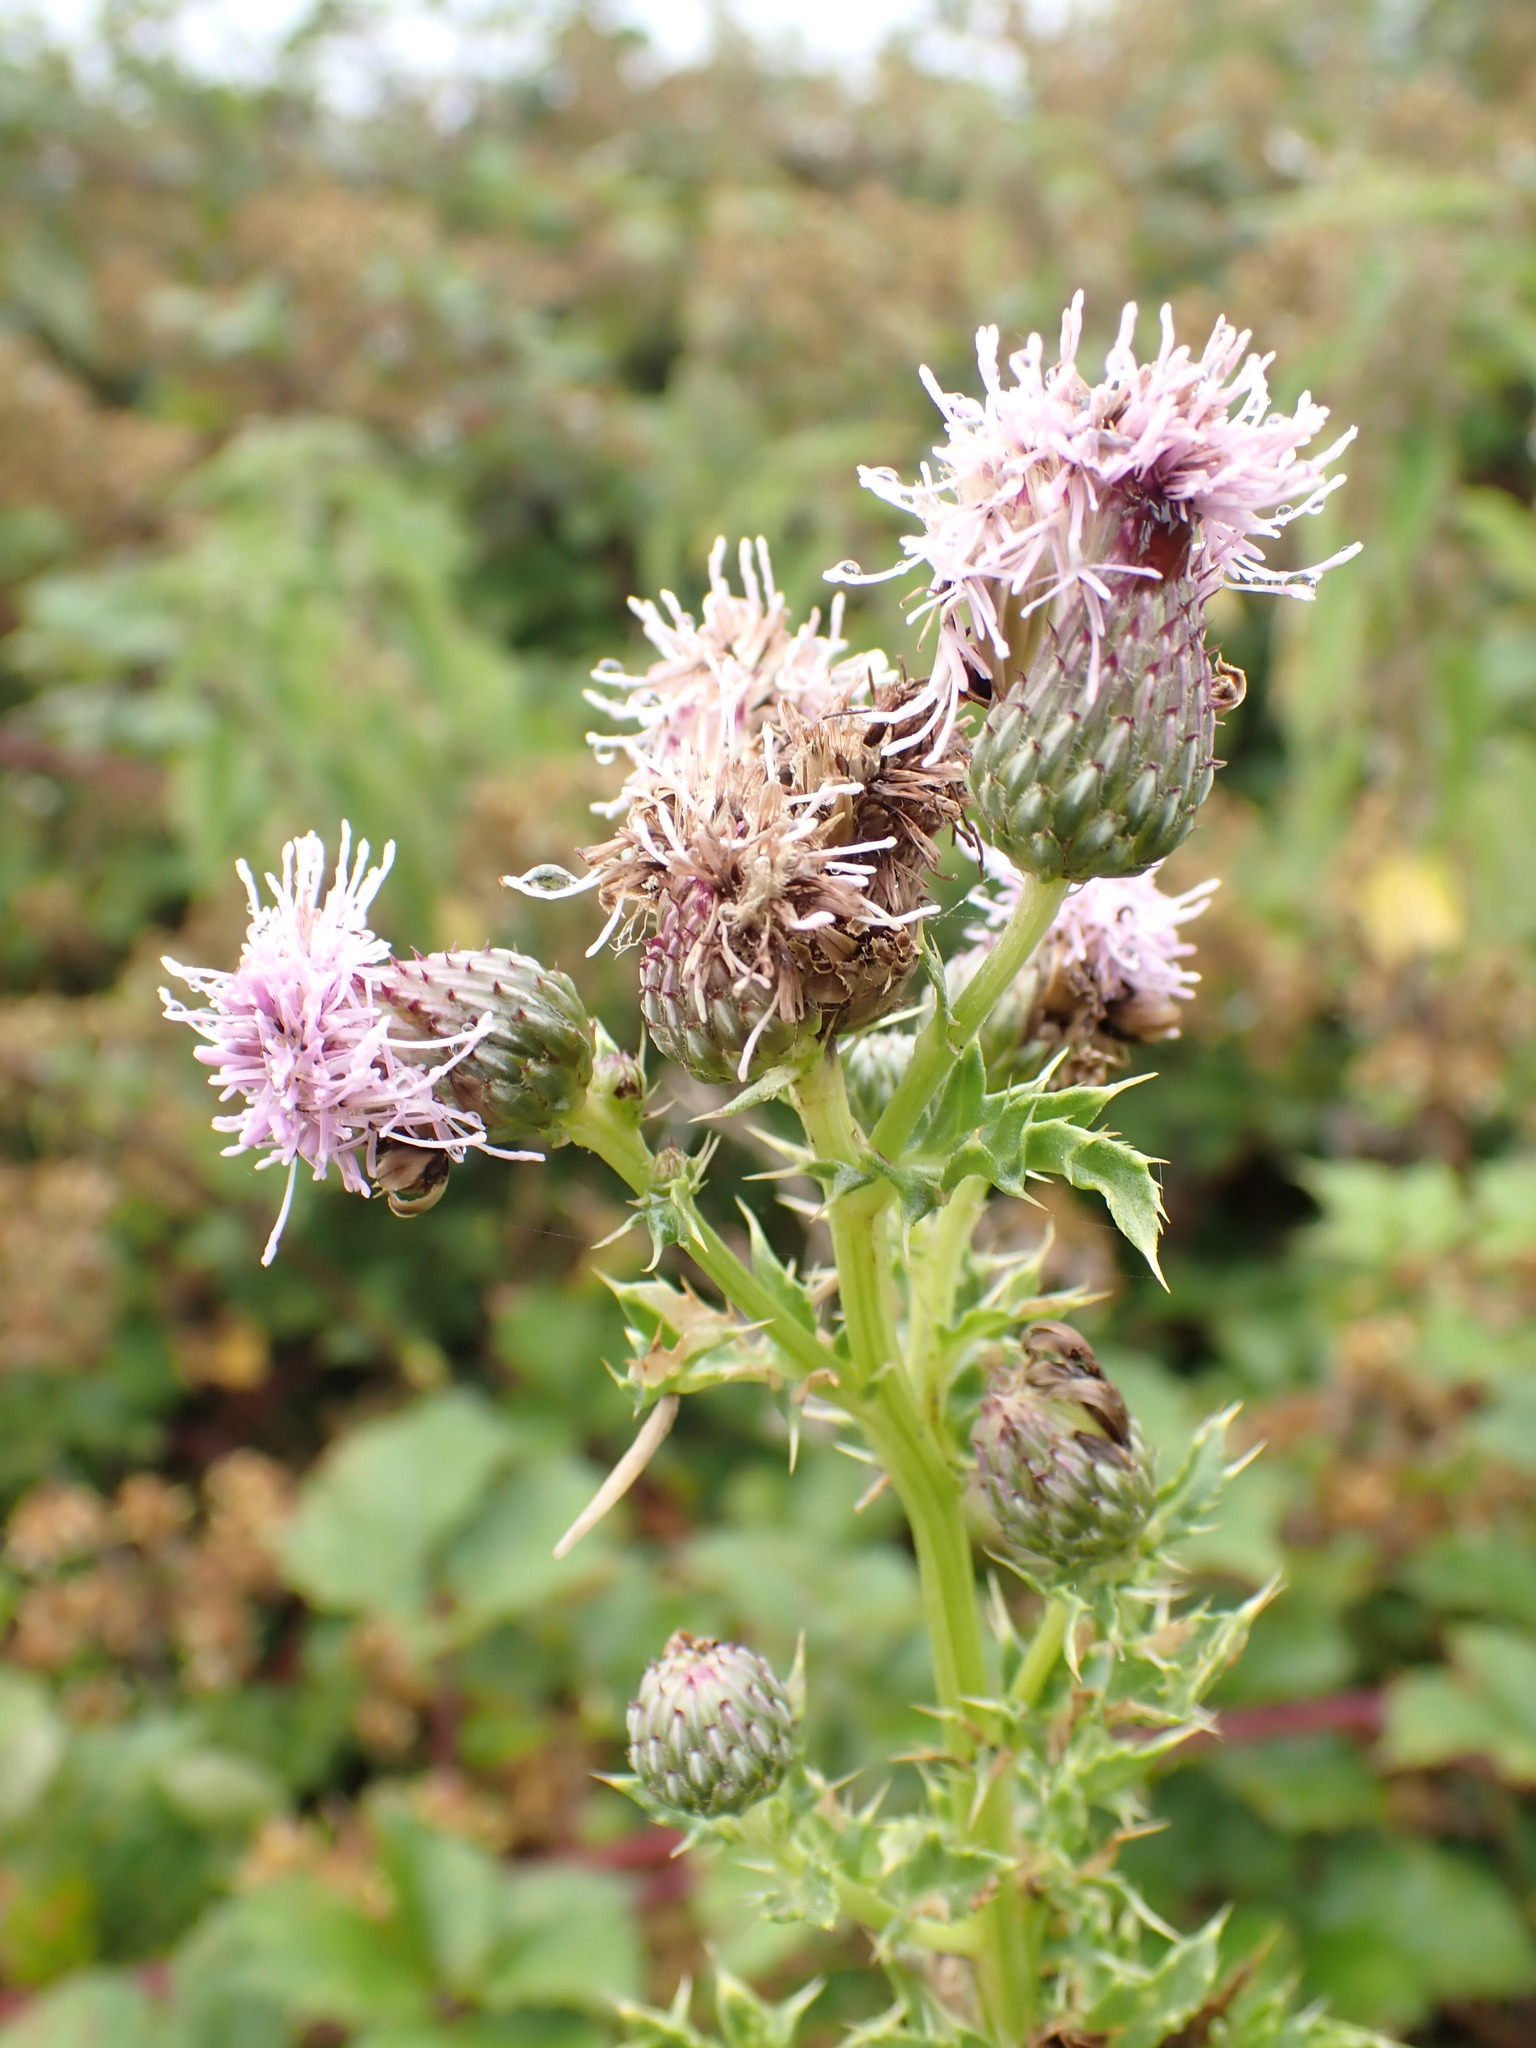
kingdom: Plantae
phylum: Tracheophyta
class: Magnoliopsida
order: Asterales
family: Asteraceae
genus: Cirsium
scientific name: Cirsium arvense
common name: Creeping thistle
